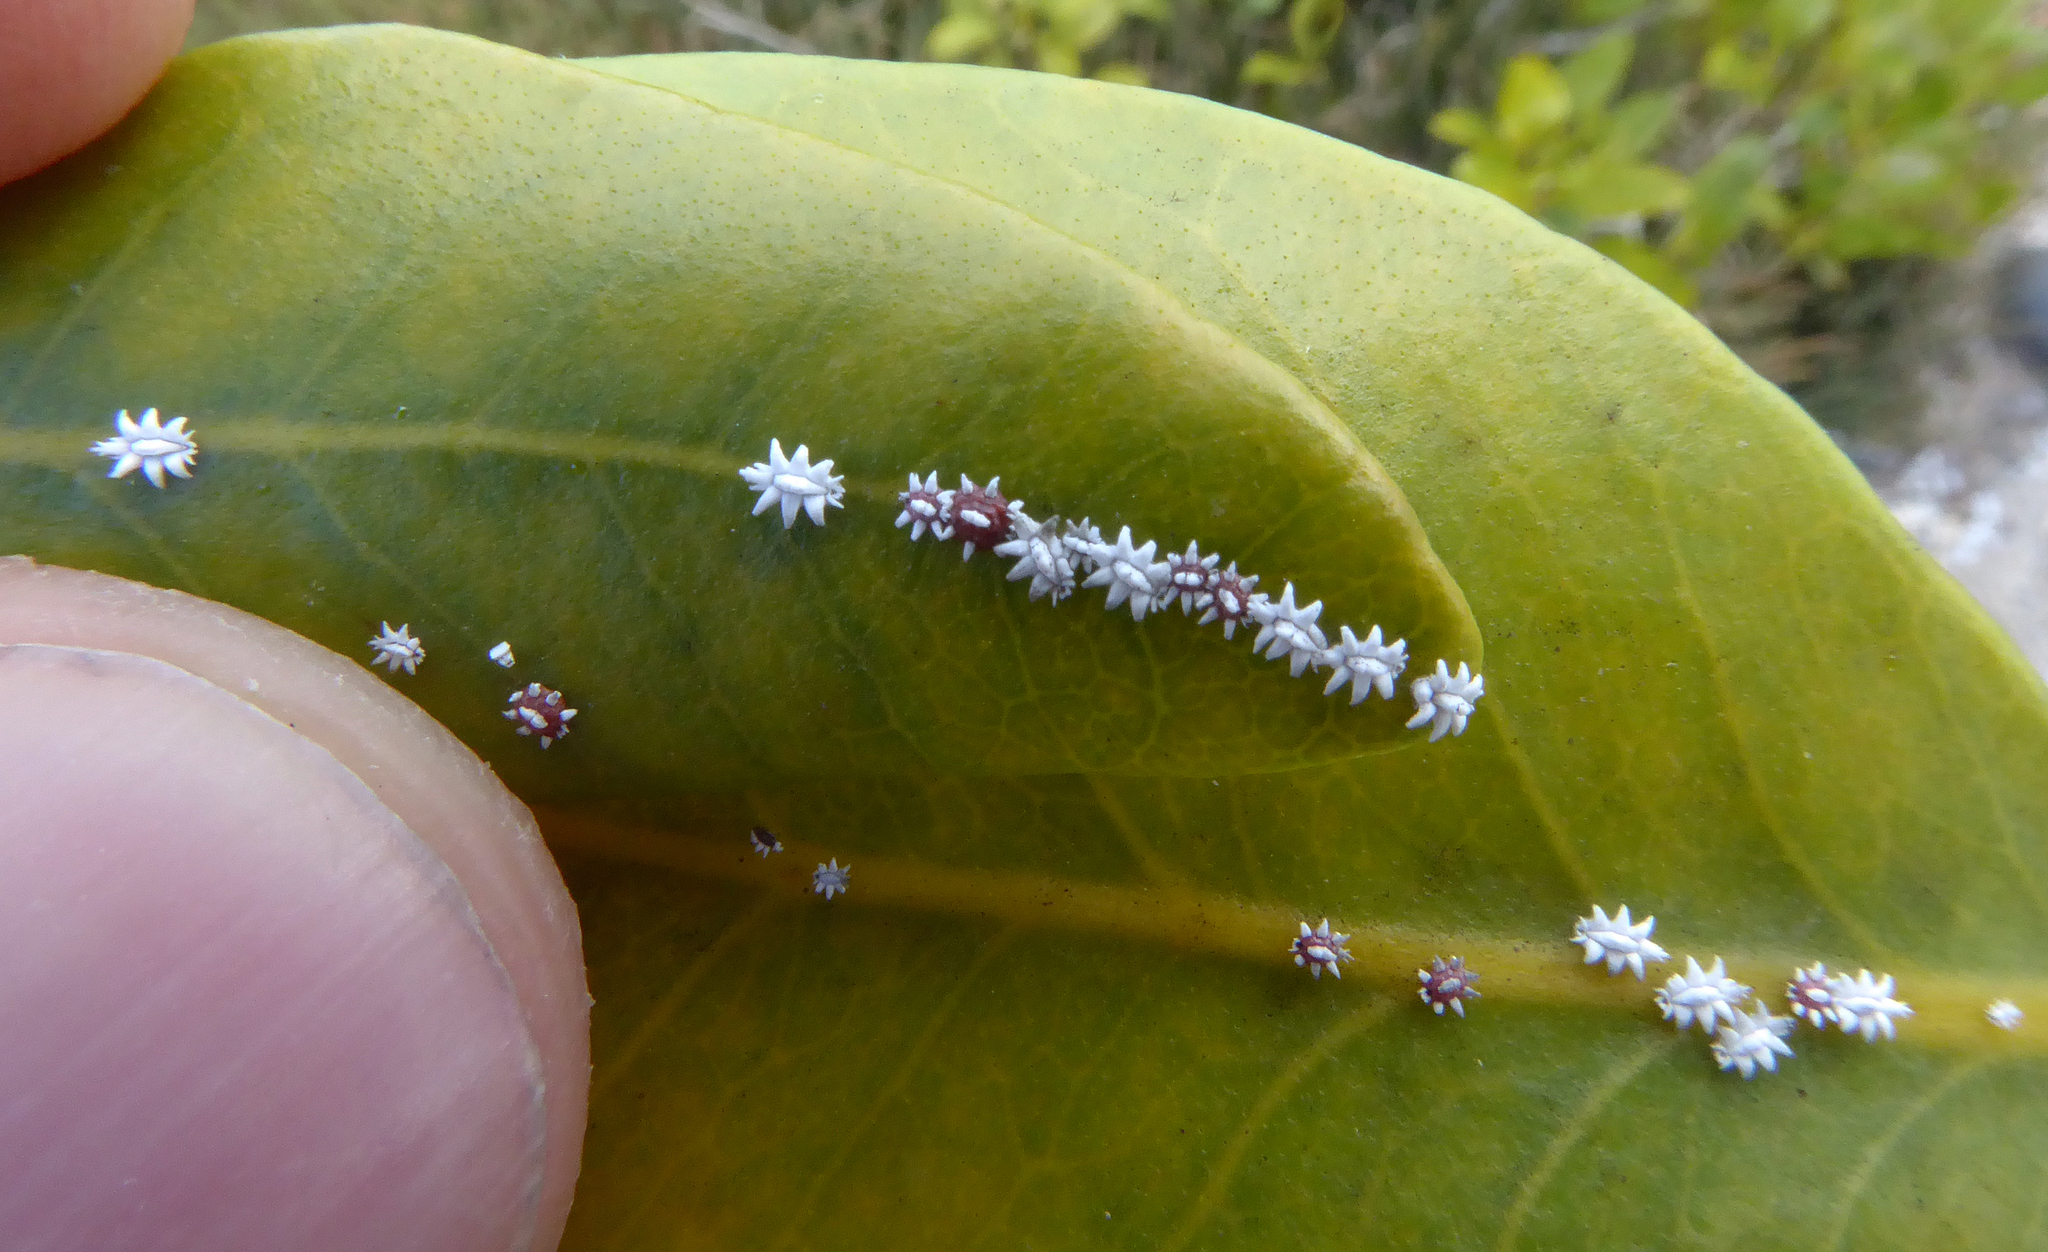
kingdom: Animalia
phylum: Arthropoda
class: Insecta
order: Hemiptera
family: Coccidae
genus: Ceroplastes
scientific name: Ceroplastes sinensis
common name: Hard wax scale
